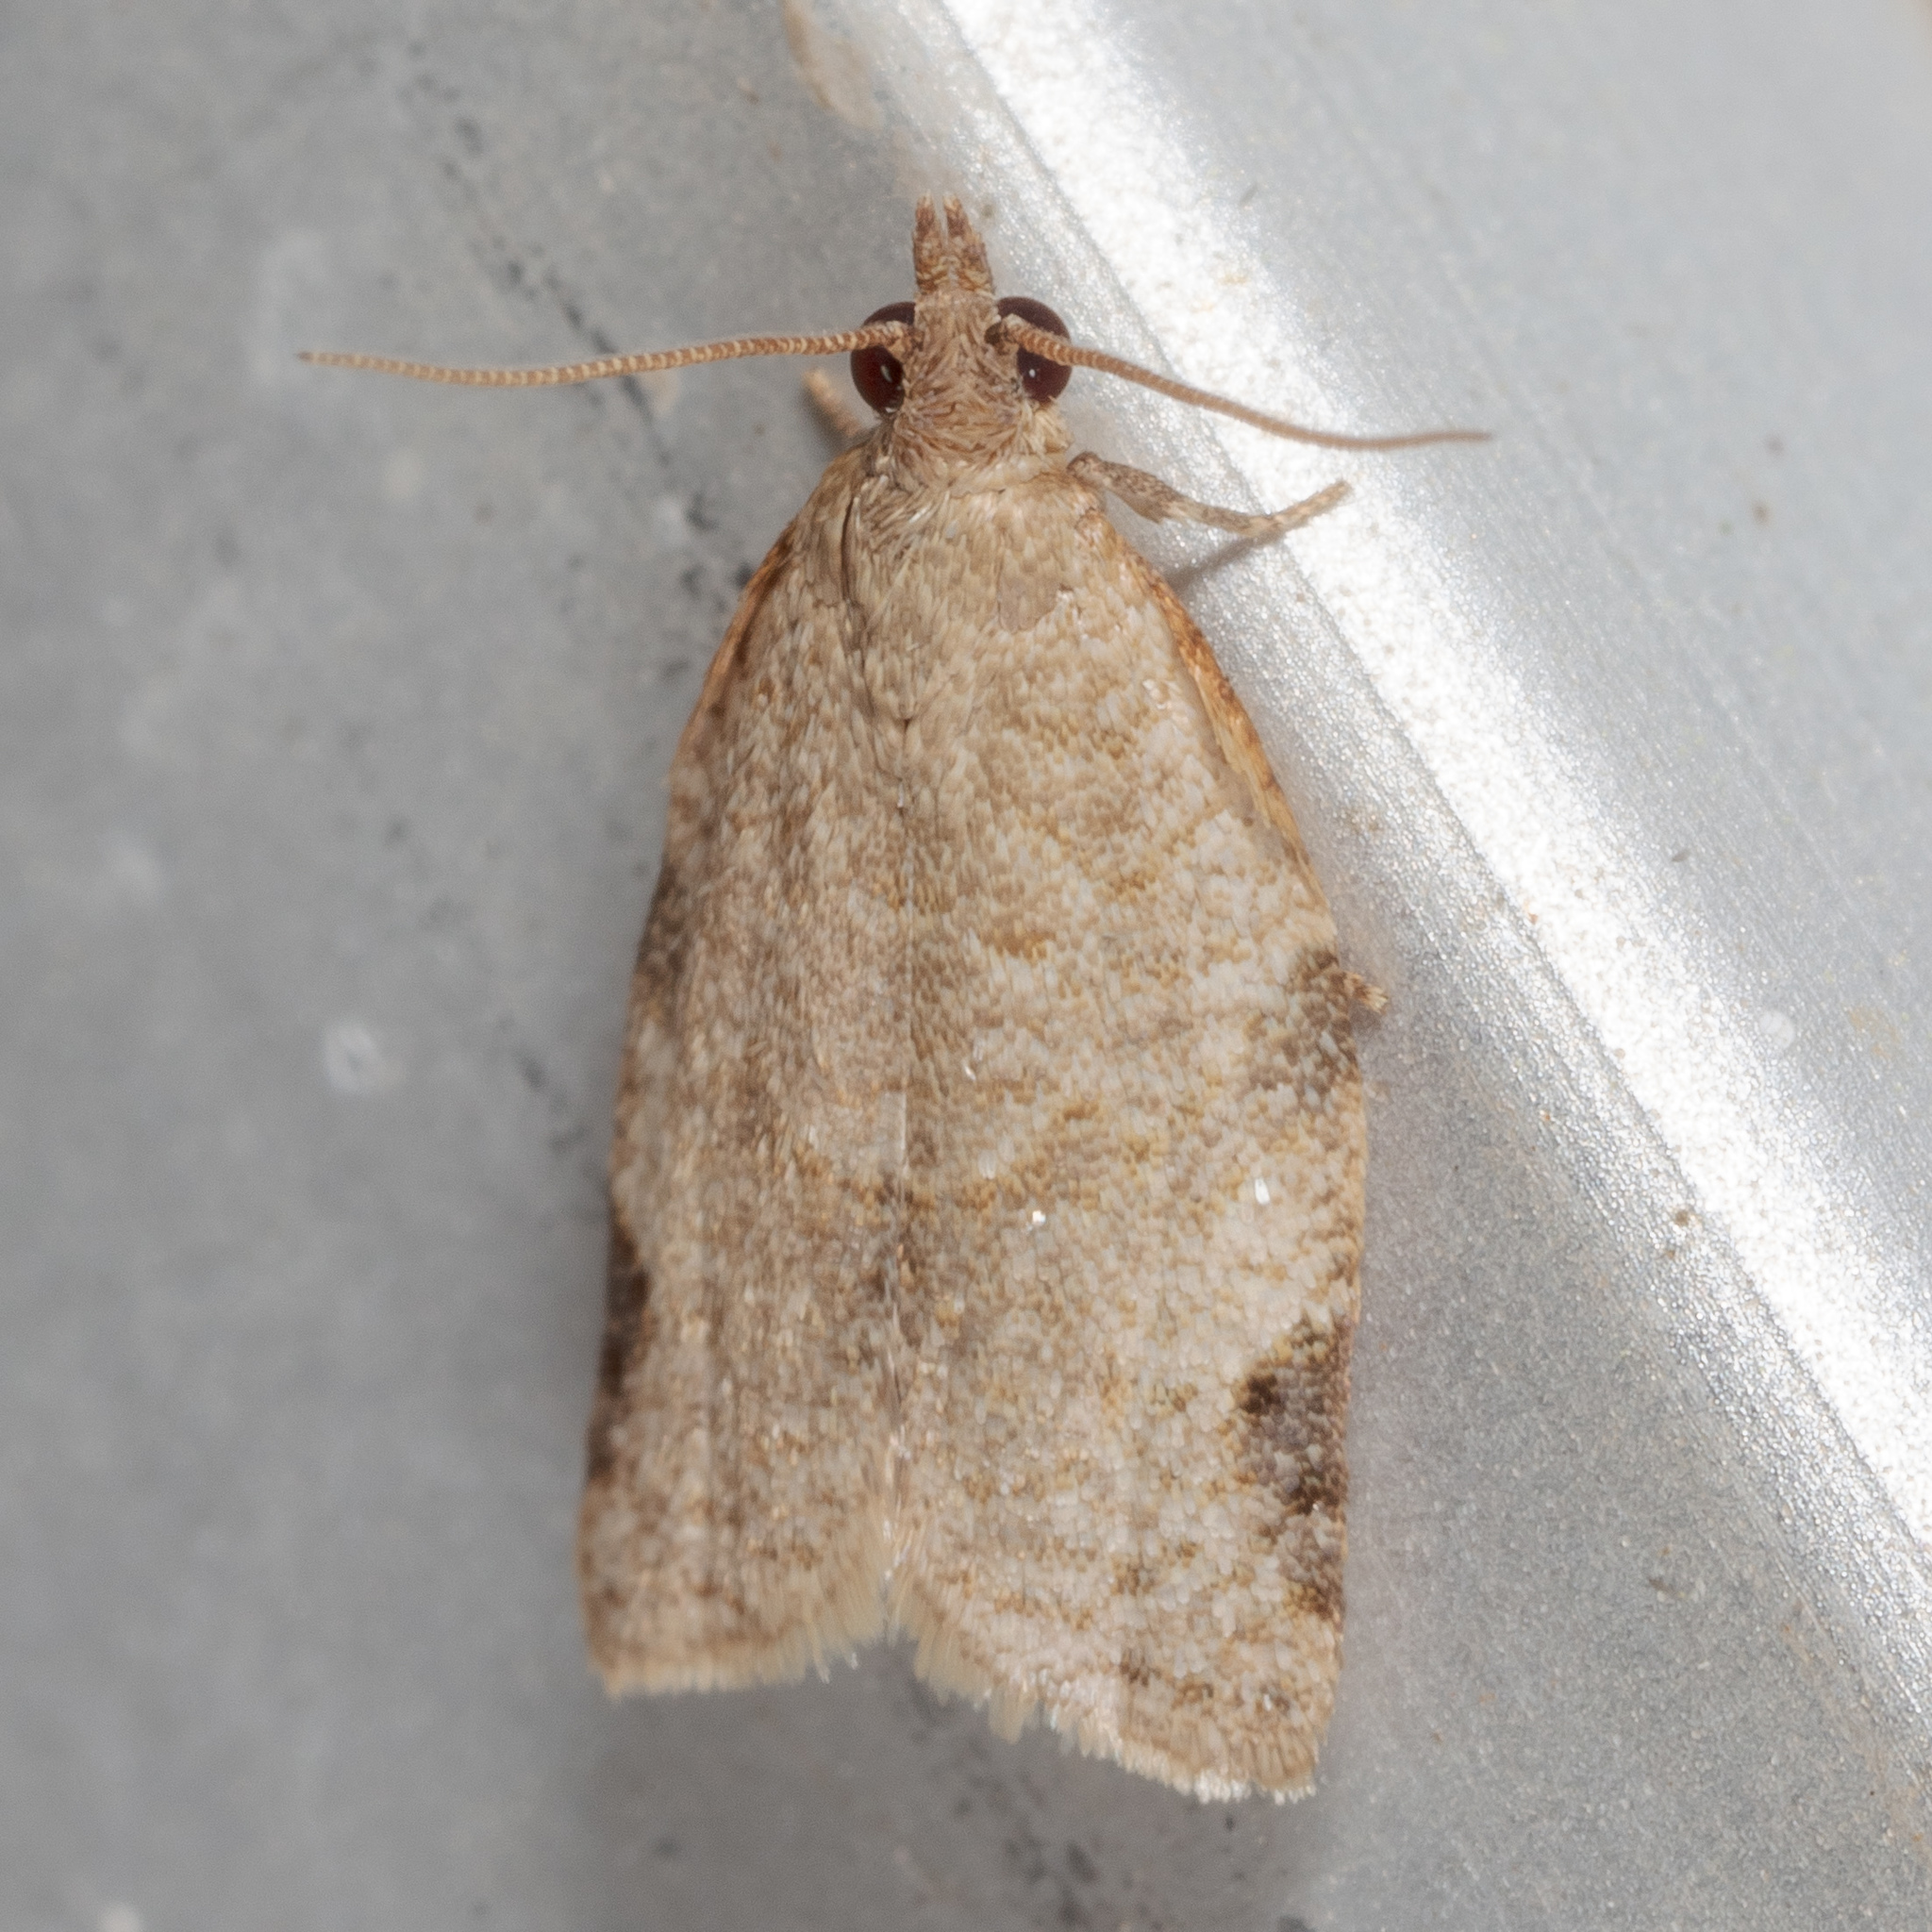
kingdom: Animalia
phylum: Arthropoda
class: Insecta
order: Lepidoptera
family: Tortricidae
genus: Clepsis
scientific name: Clepsis virescana
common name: Greenish apple moth
